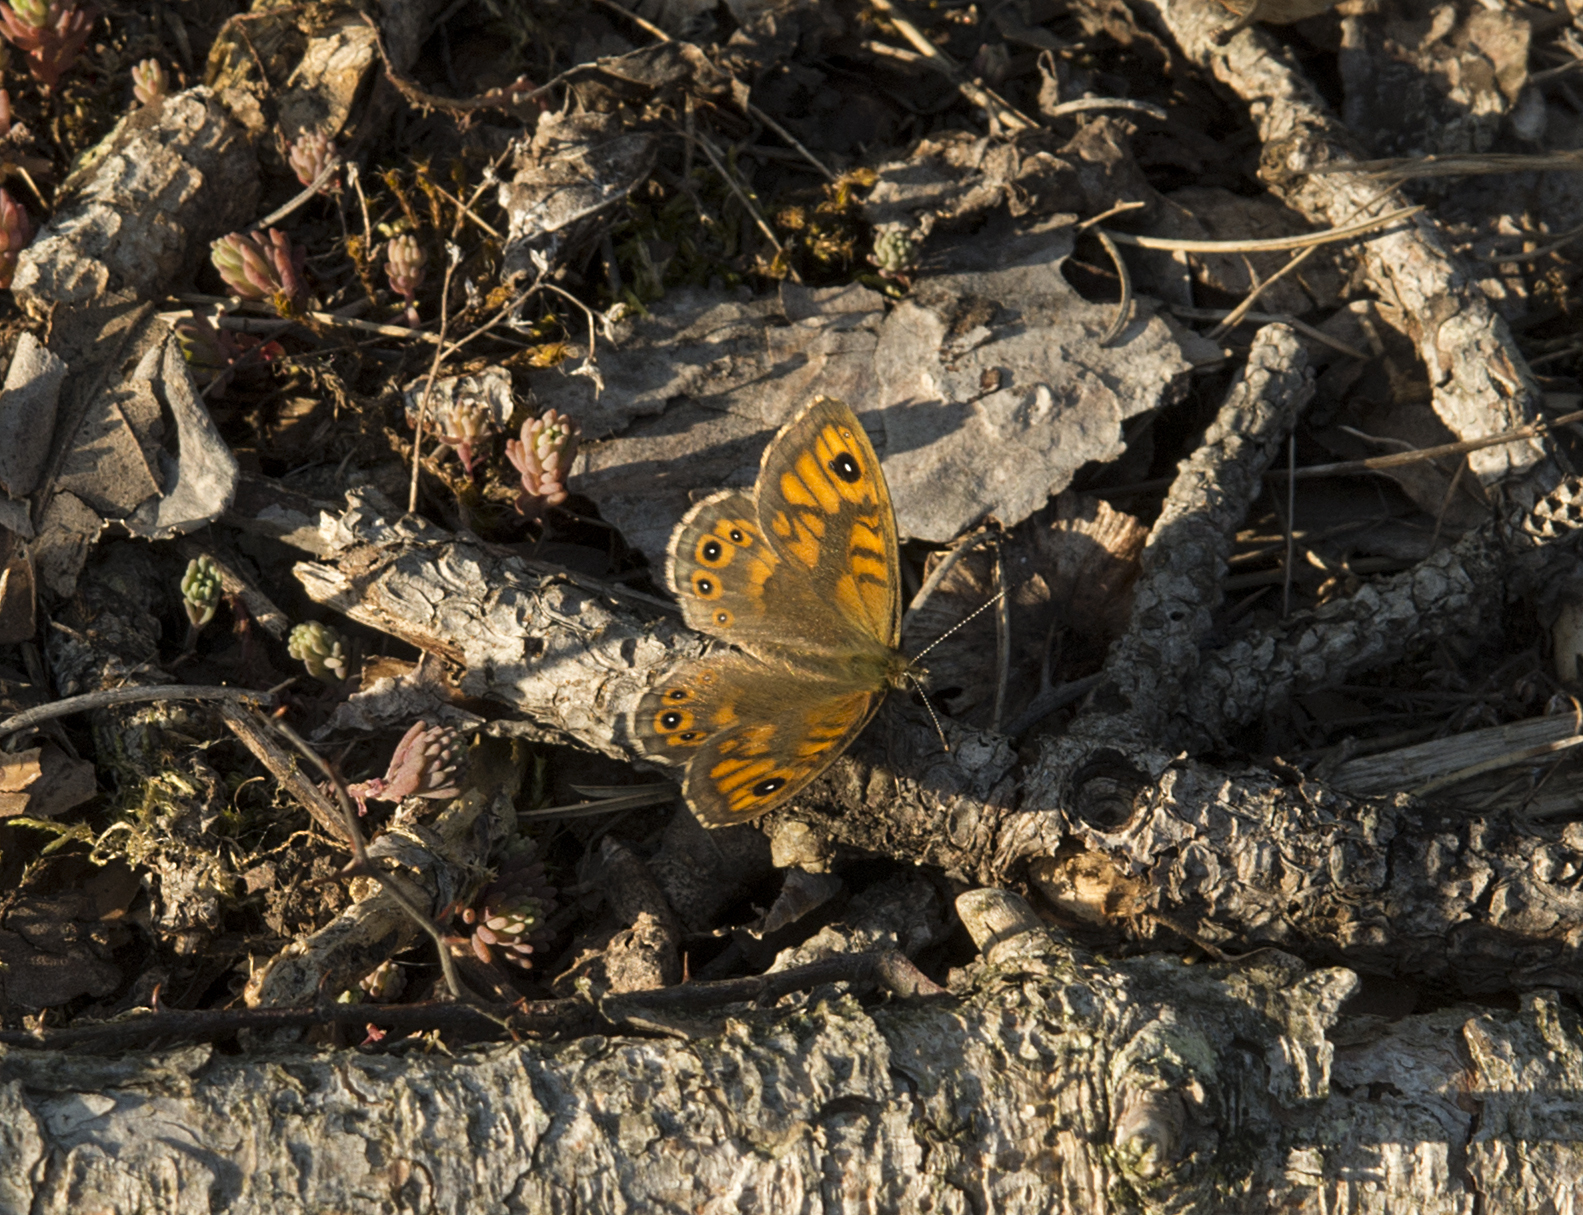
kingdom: Animalia
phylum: Arthropoda
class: Insecta
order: Lepidoptera
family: Nymphalidae
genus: Pararge
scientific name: Pararge Lasiommata megera
